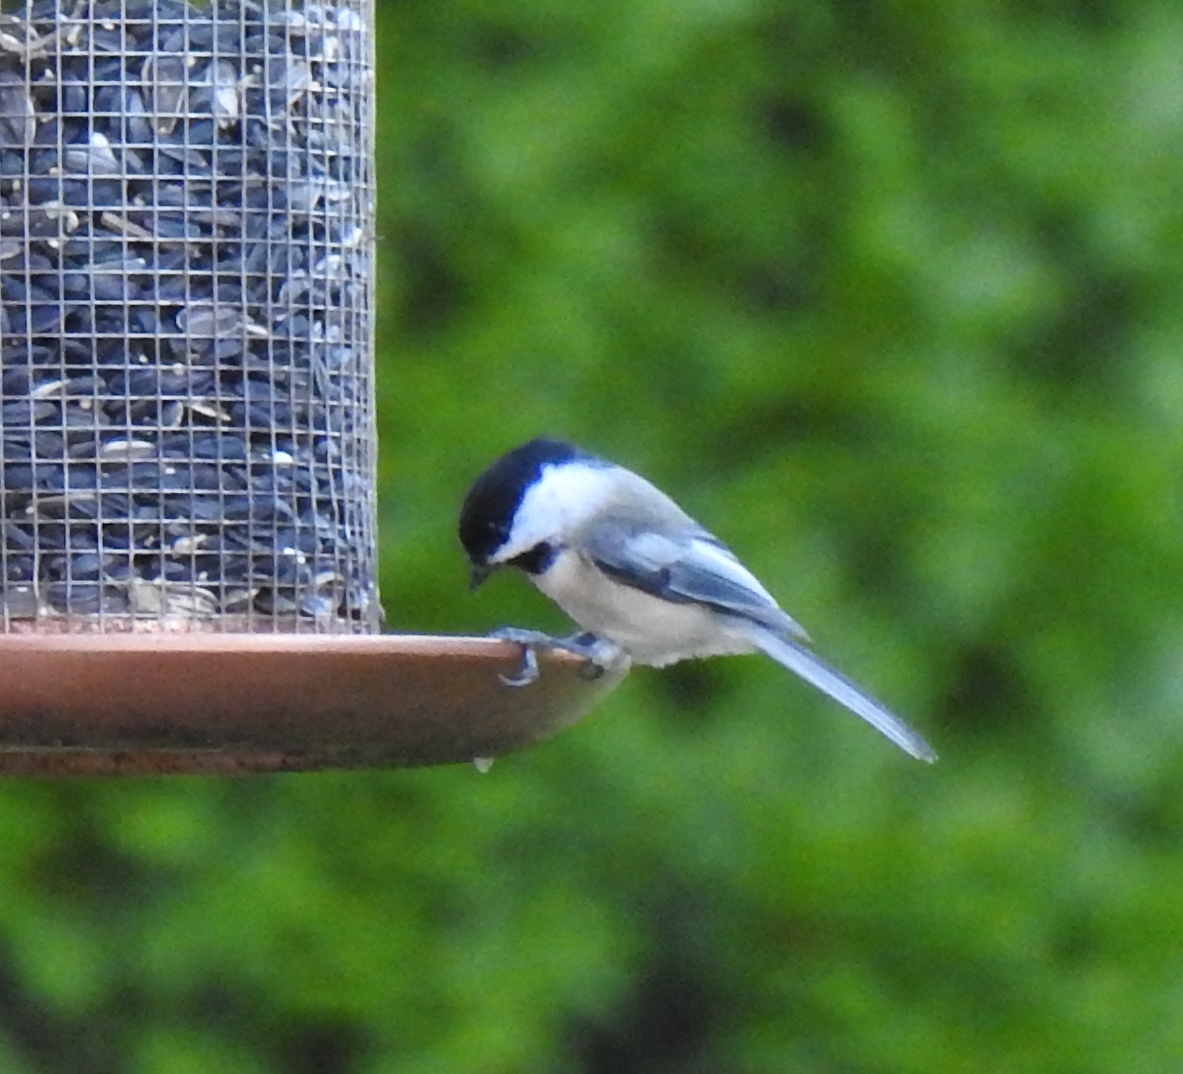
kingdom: Animalia
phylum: Chordata
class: Aves
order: Passeriformes
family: Paridae
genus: Poecile
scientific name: Poecile atricapillus
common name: Black-capped chickadee
